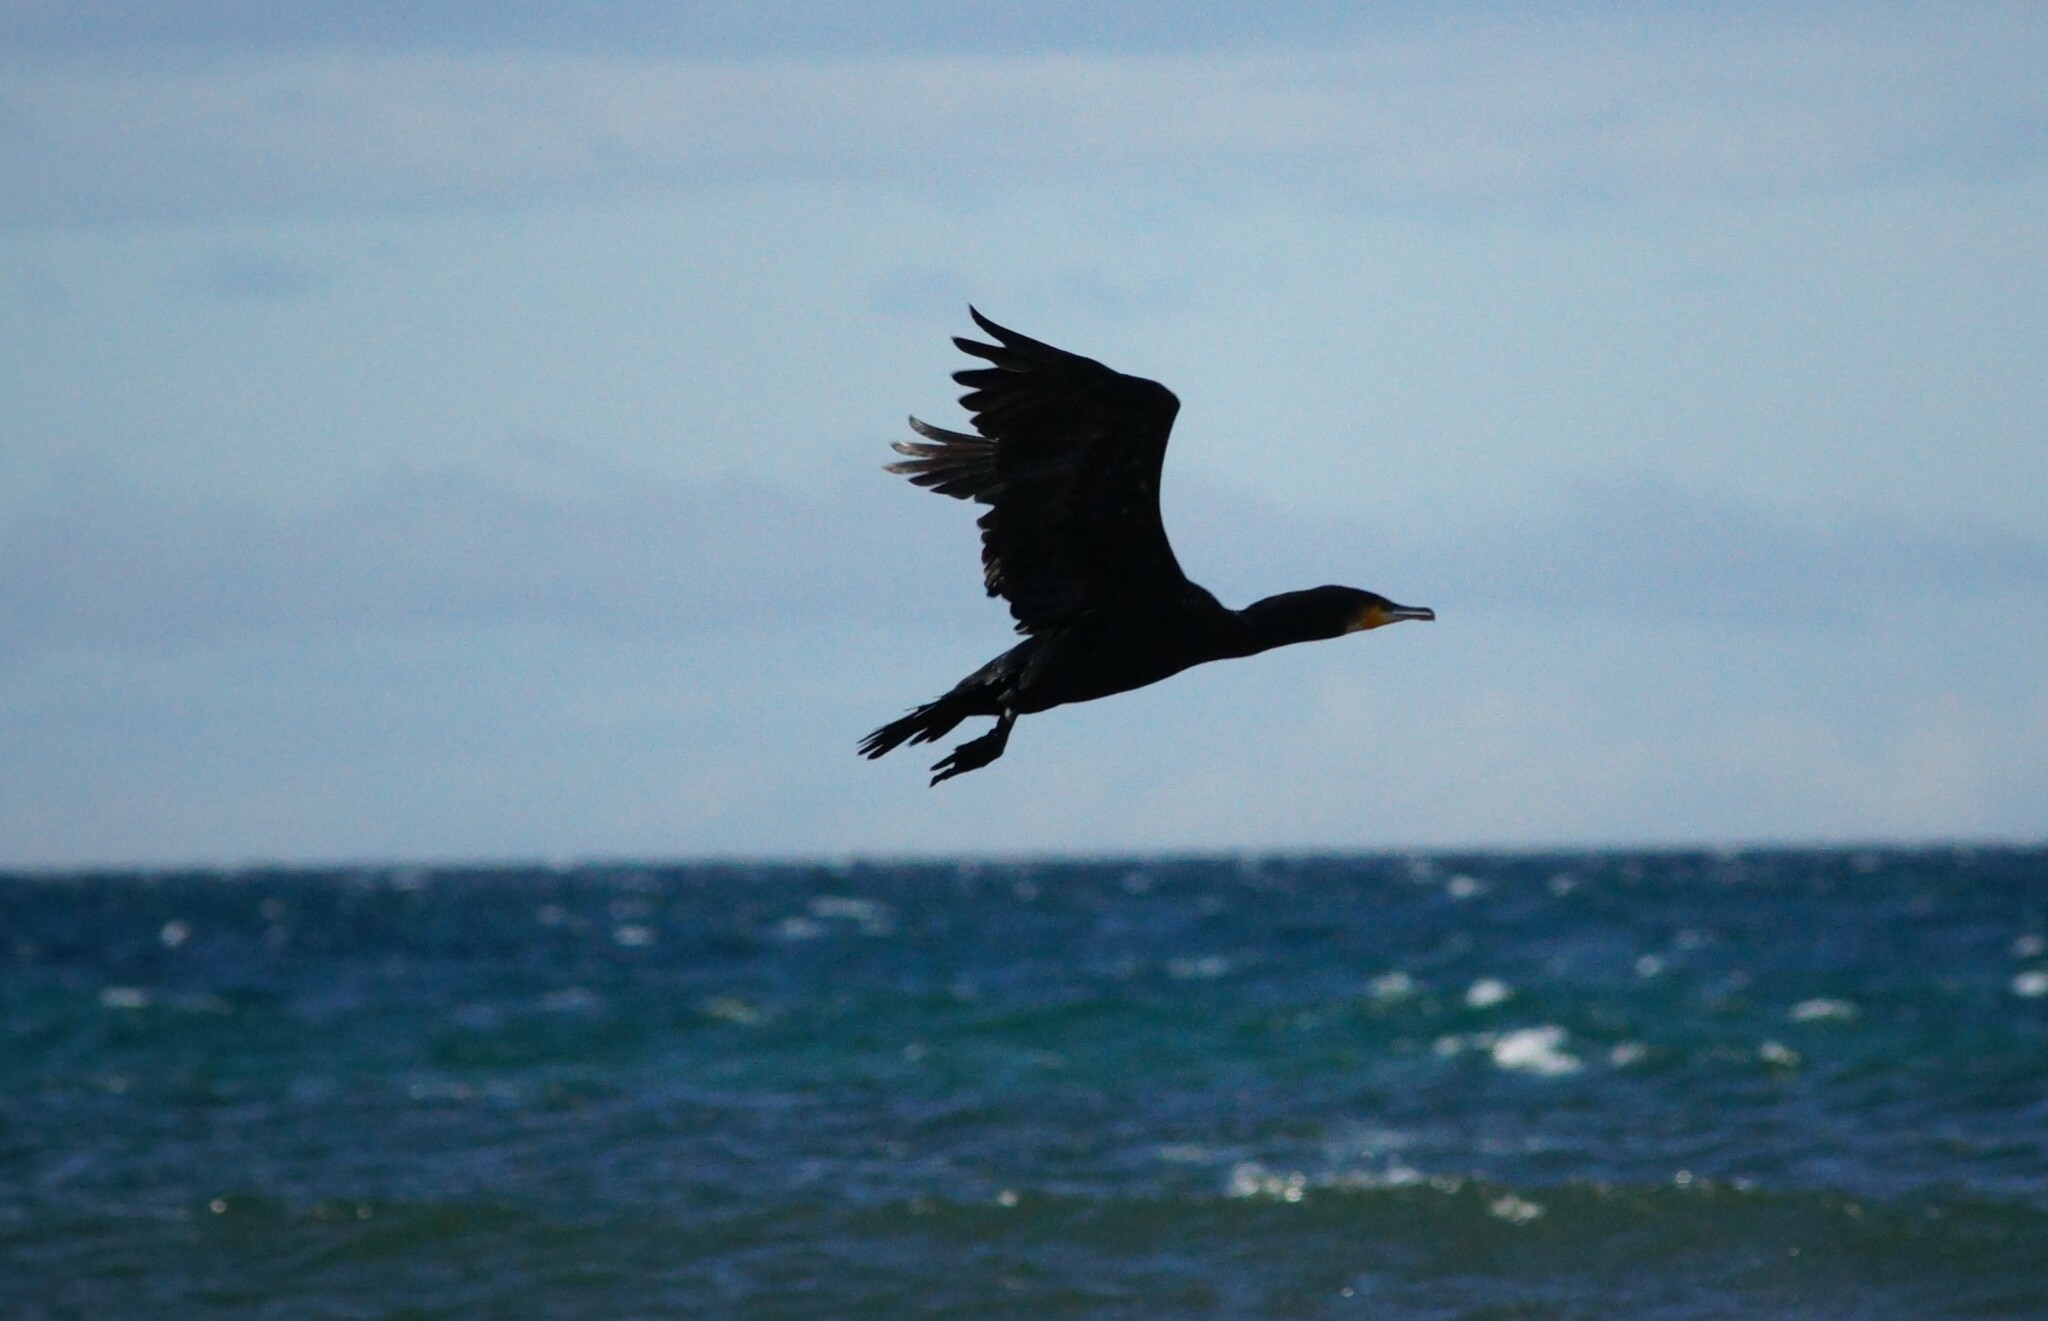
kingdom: Animalia
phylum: Chordata
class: Aves
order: Suliformes
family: Phalacrocoracidae
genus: Phalacrocorax
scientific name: Phalacrocorax carbo
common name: Great cormorant
